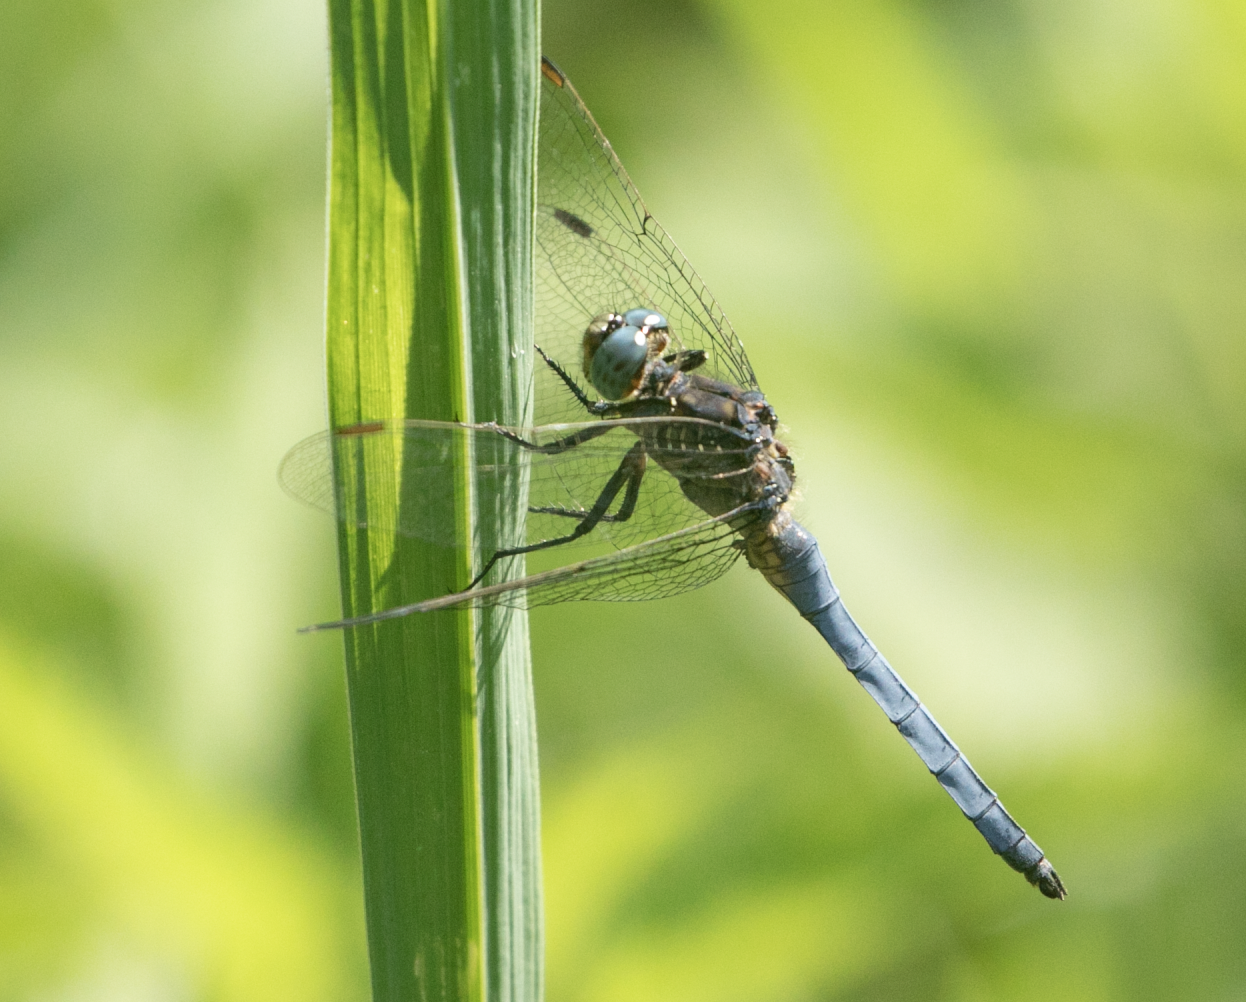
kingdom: Animalia
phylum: Arthropoda
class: Insecta
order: Odonata
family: Libellulidae
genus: Orthetrum
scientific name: Orthetrum coerulescens
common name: Keeled skimmer
